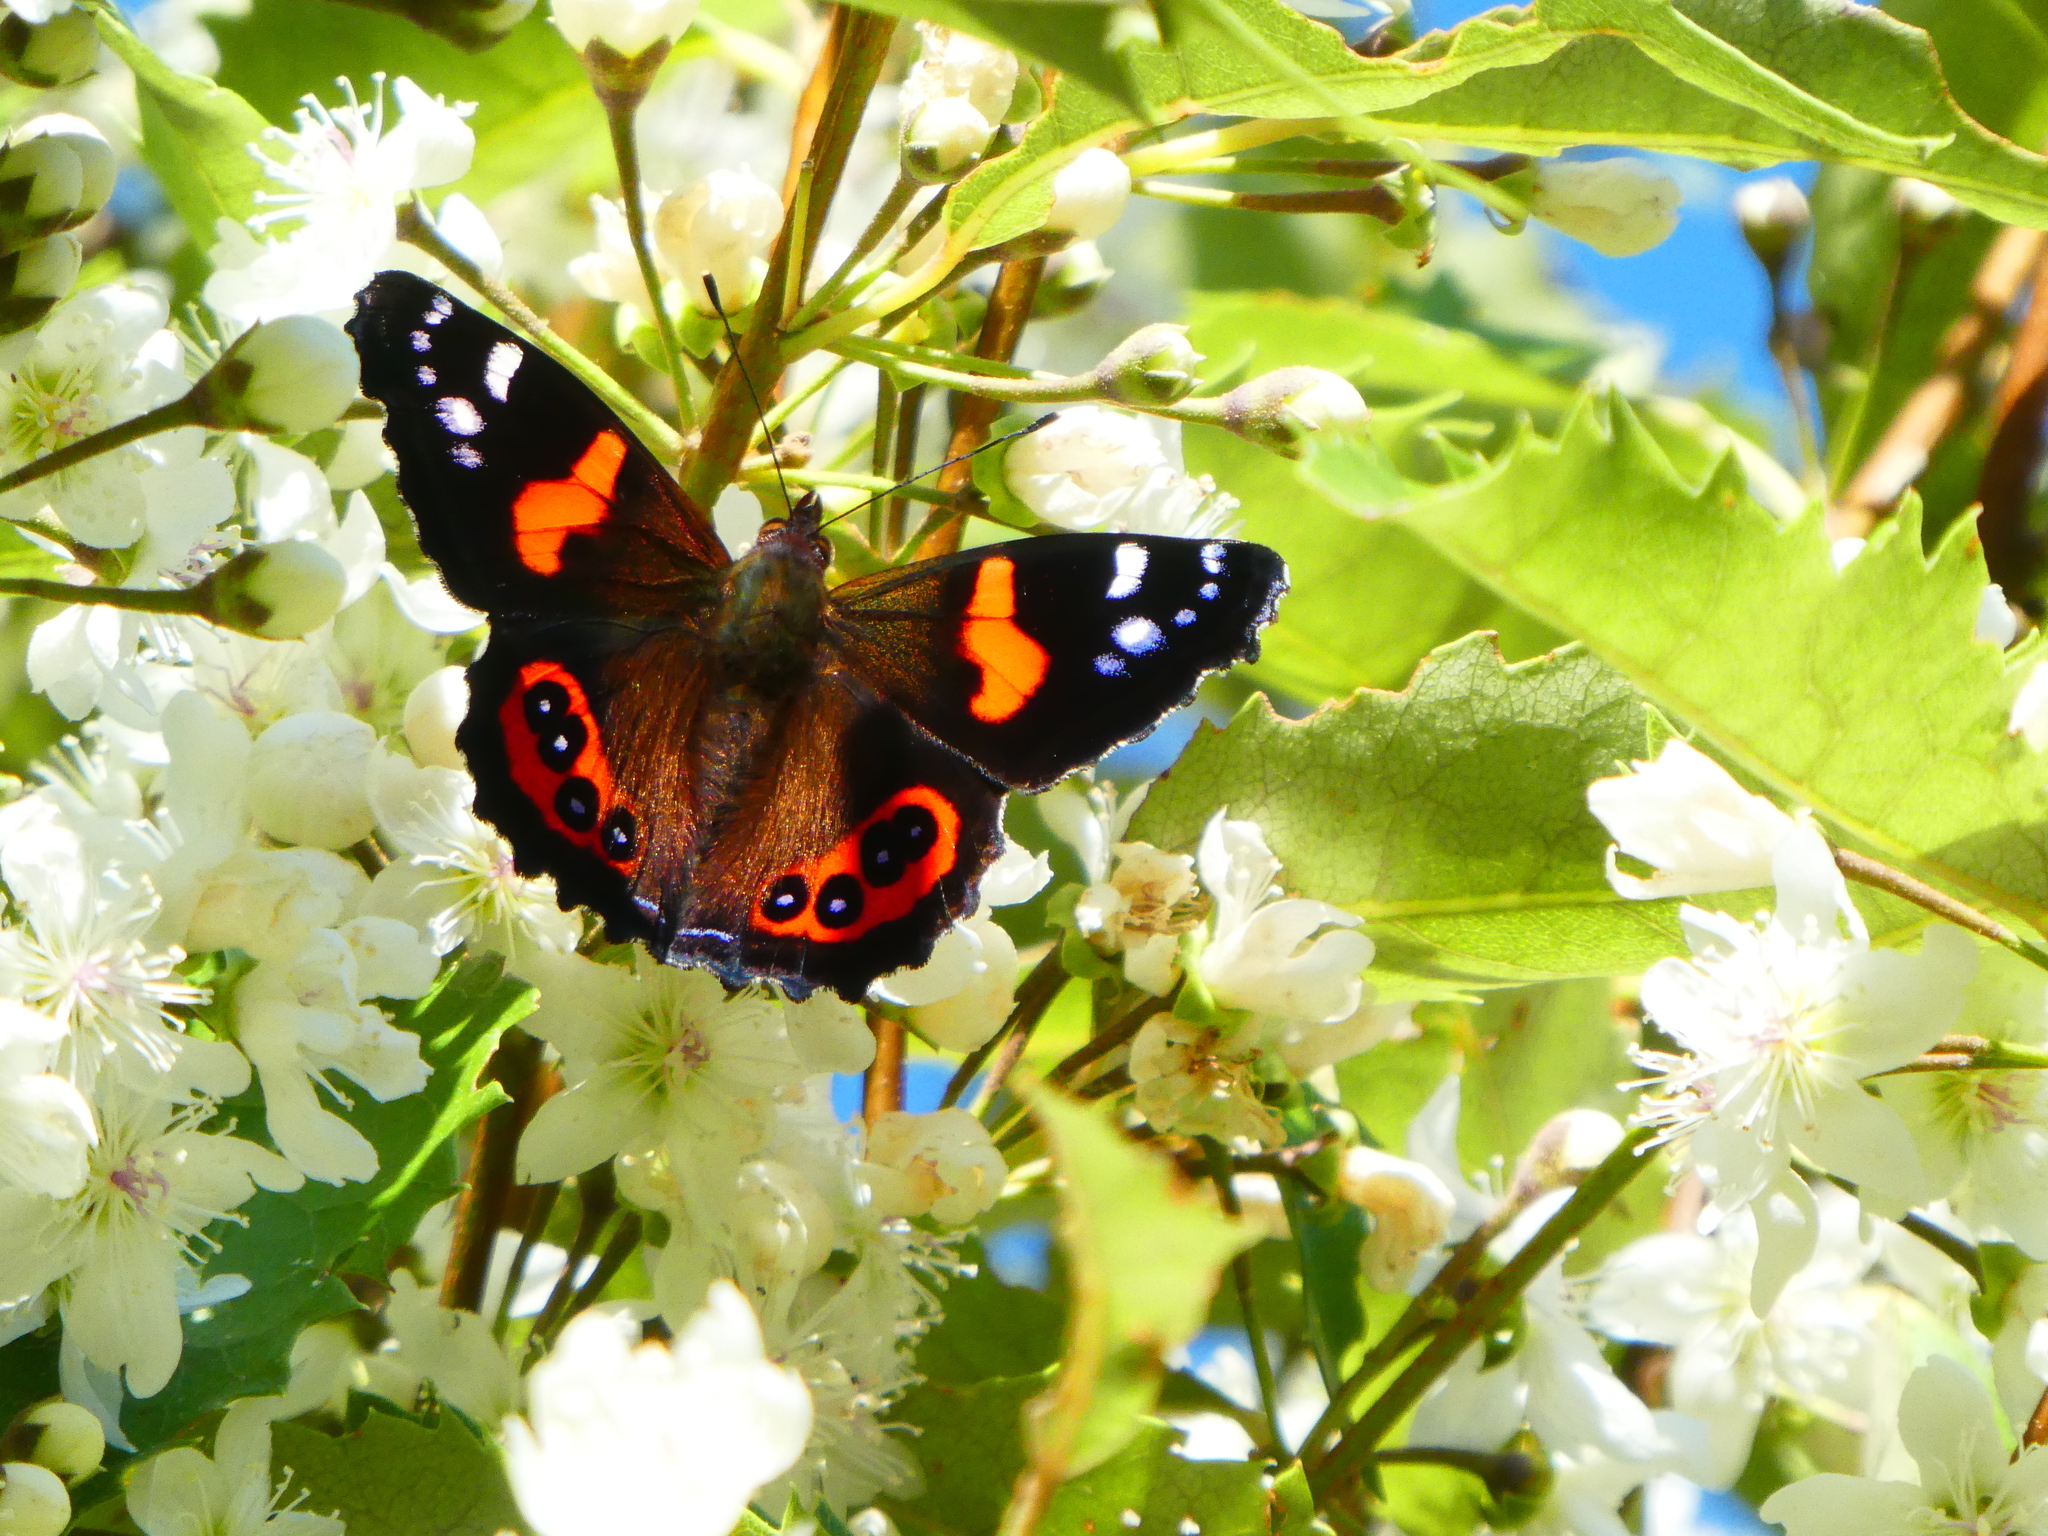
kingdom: Animalia
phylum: Arthropoda
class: Insecta
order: Lepidoptera
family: Nymphalidae
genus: Vanessa
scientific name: Vanessa gonerilla
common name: New zealand red admiral
